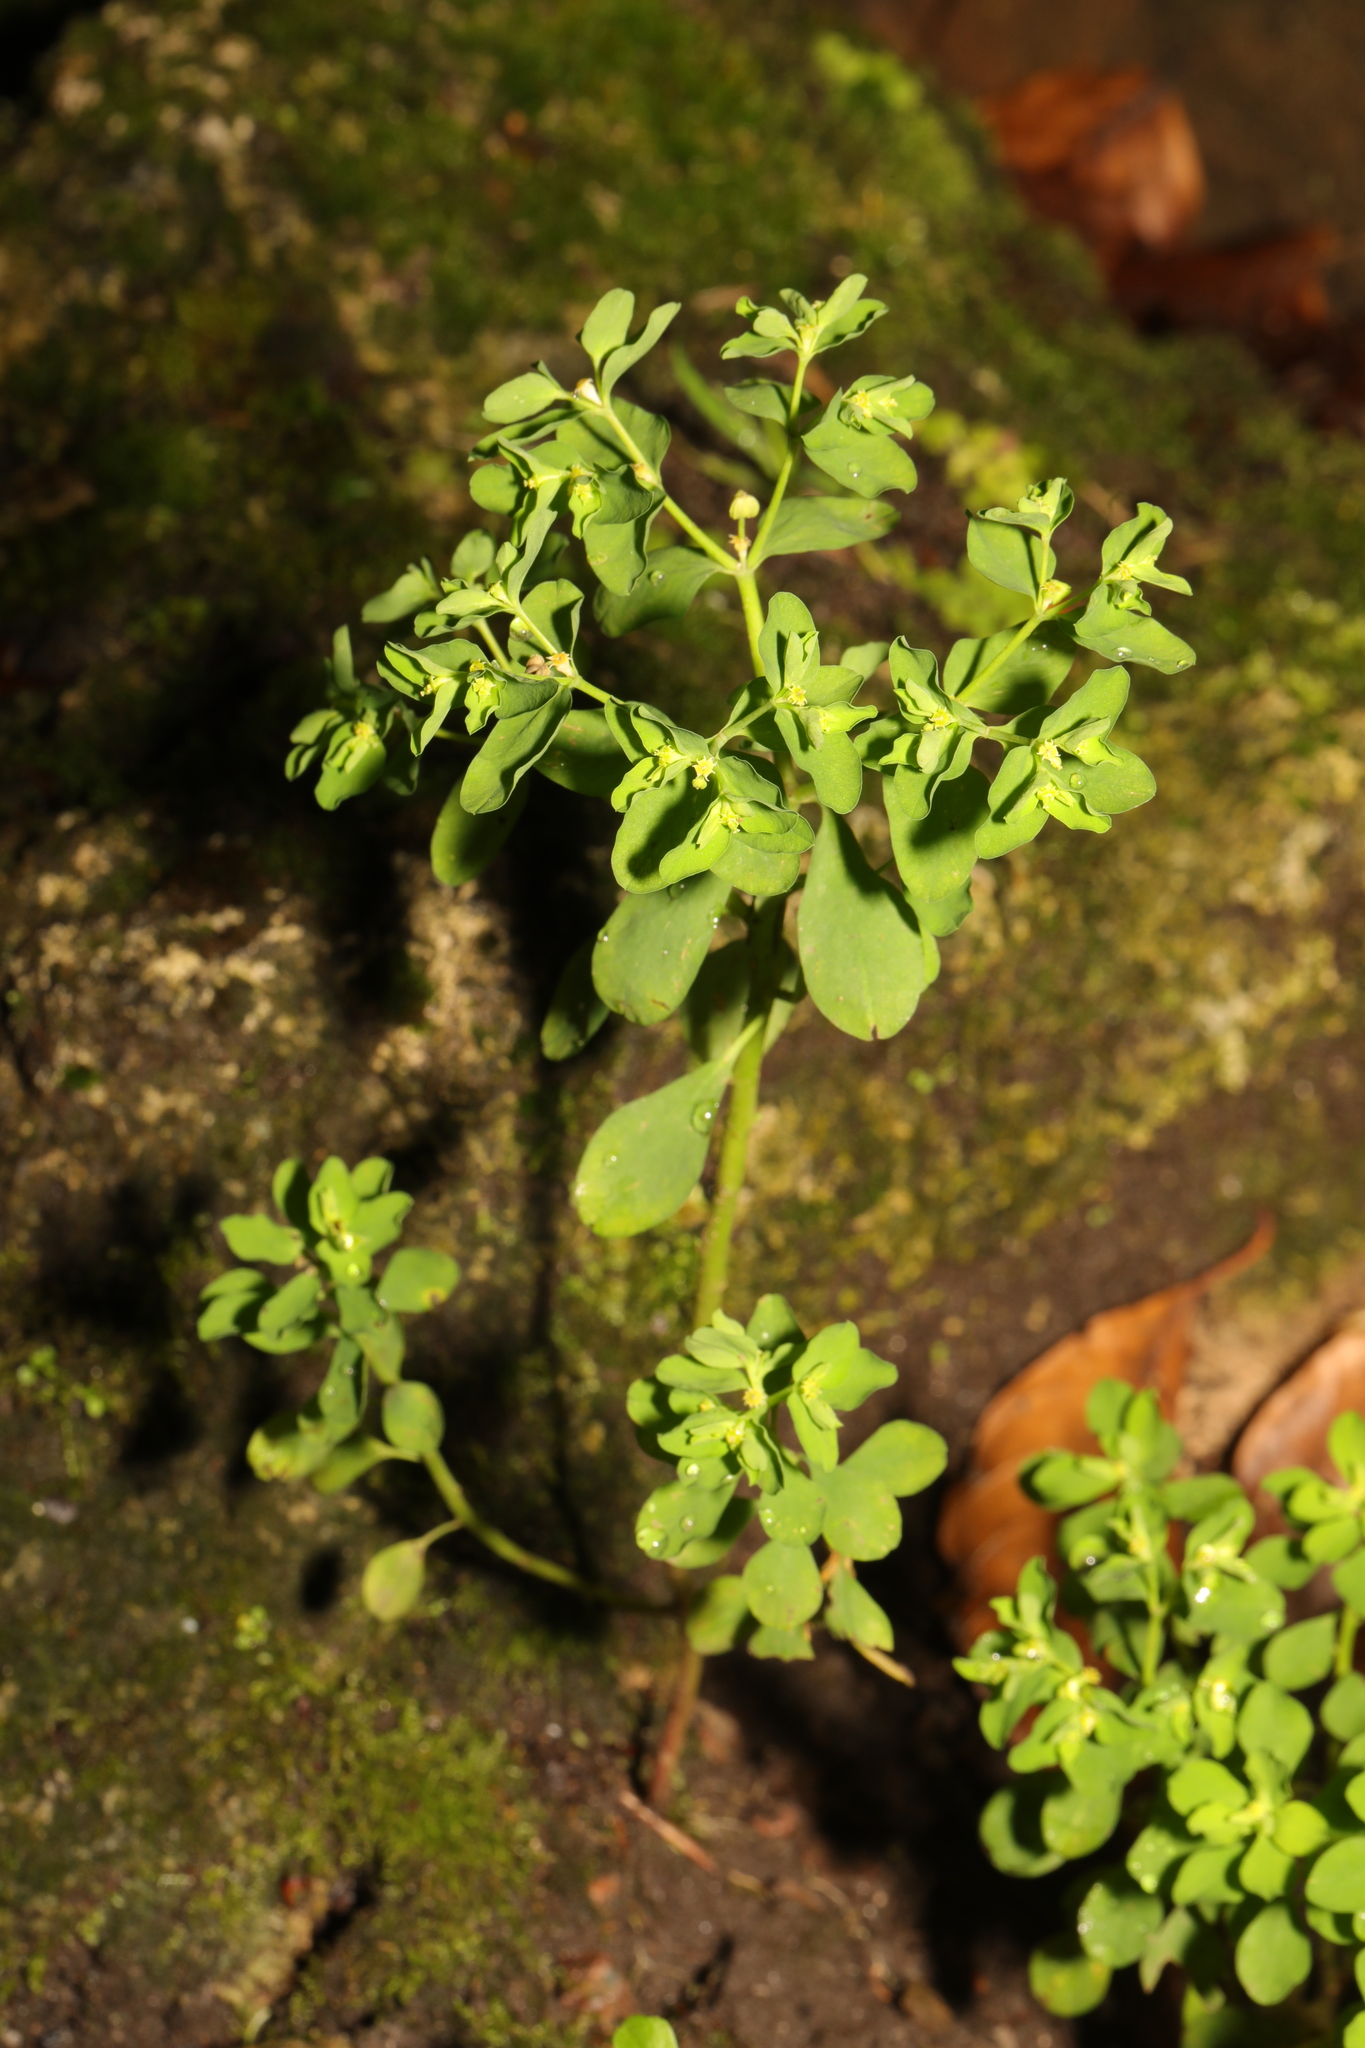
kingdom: Plantae
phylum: Tracheophyta
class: Magnoliopsida
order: Malpighiales
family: Euphorbiaceae
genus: Euphorbia
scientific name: Euphorbia peplus
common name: Petty spurge
